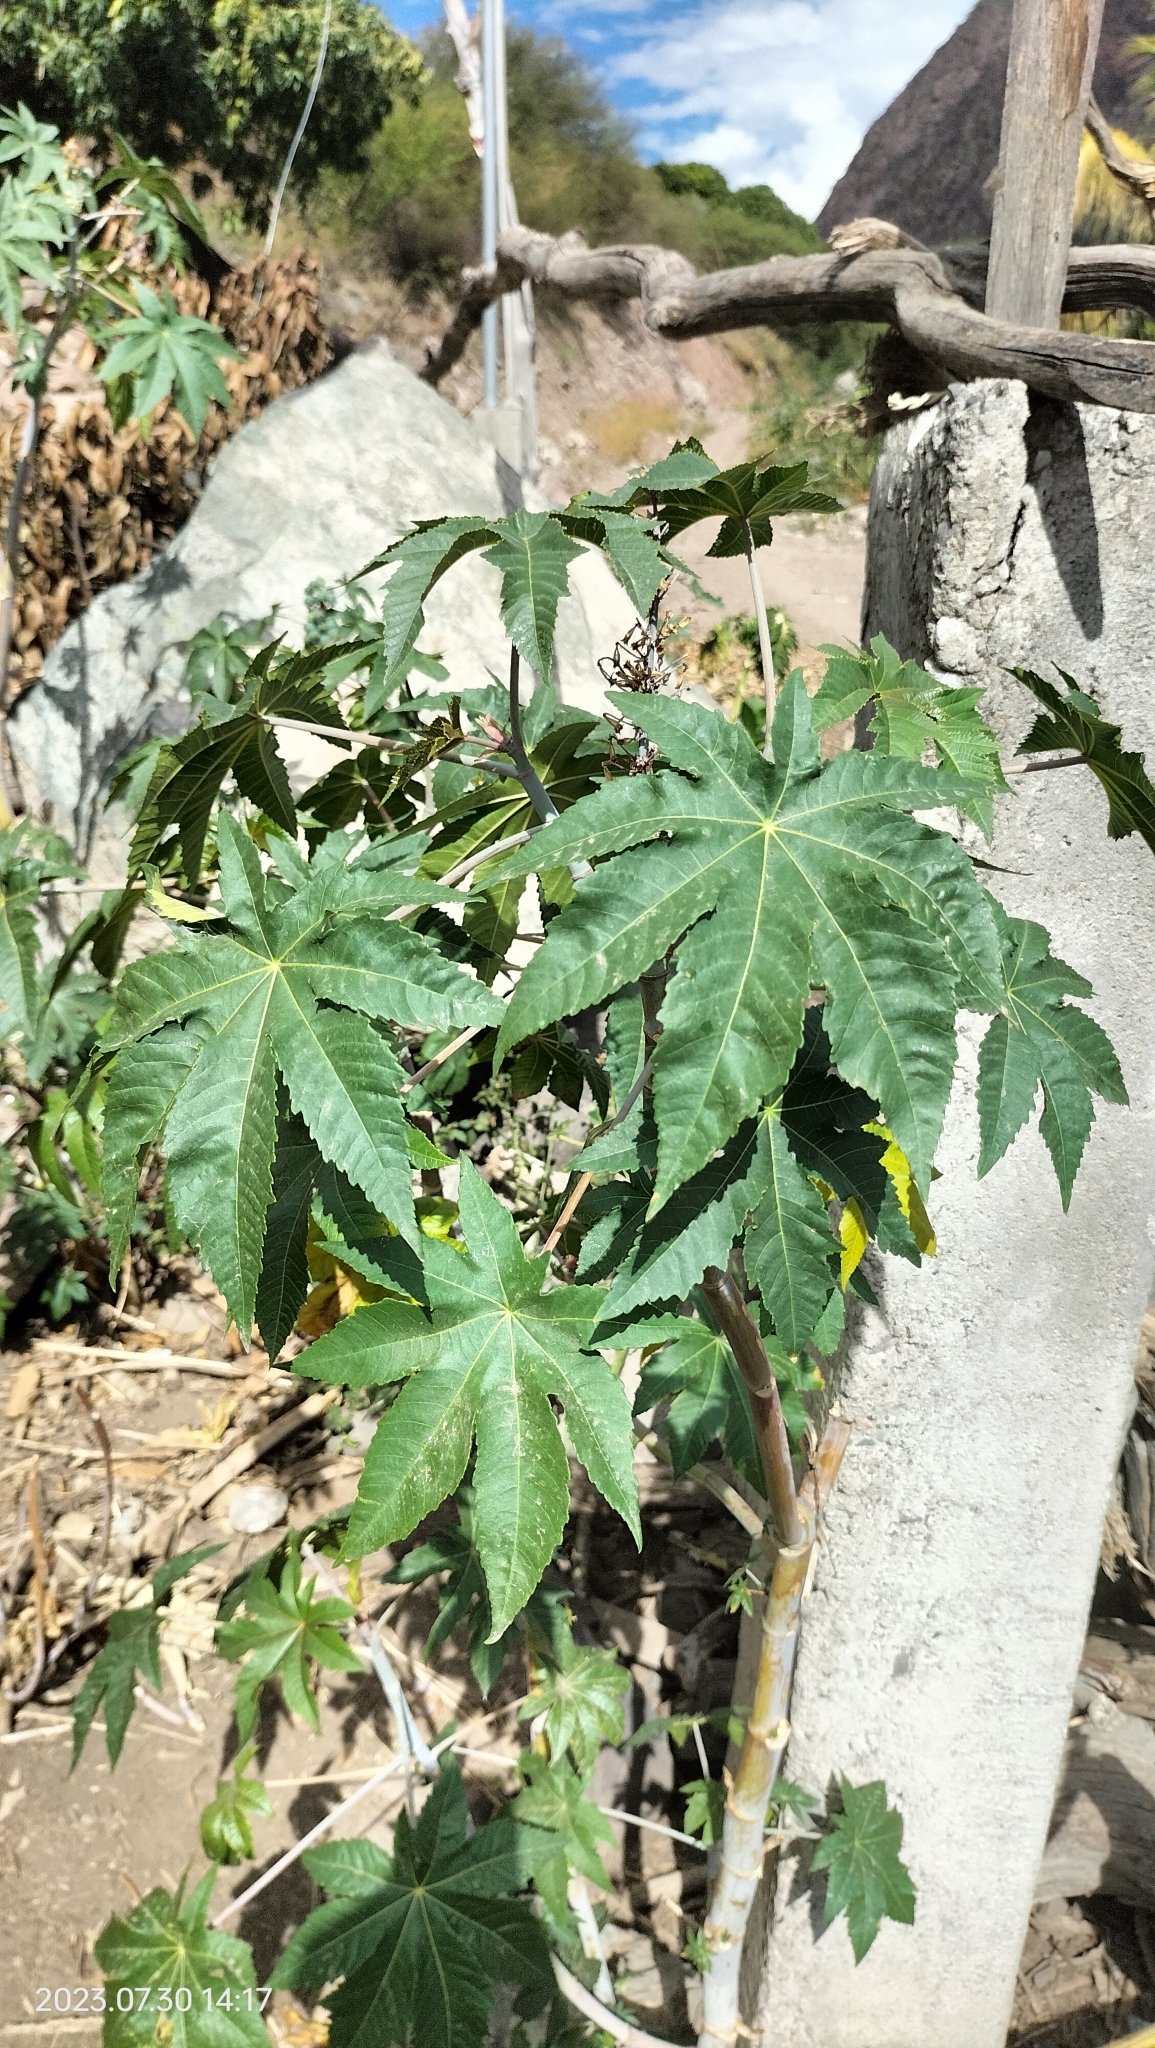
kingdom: Plantae
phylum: Tracheophyta
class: Magnoliopsida
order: Malpighiales
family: Euphorbiaceae
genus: Ricinus
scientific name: Ricinus communis
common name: Castor-oil-plant
